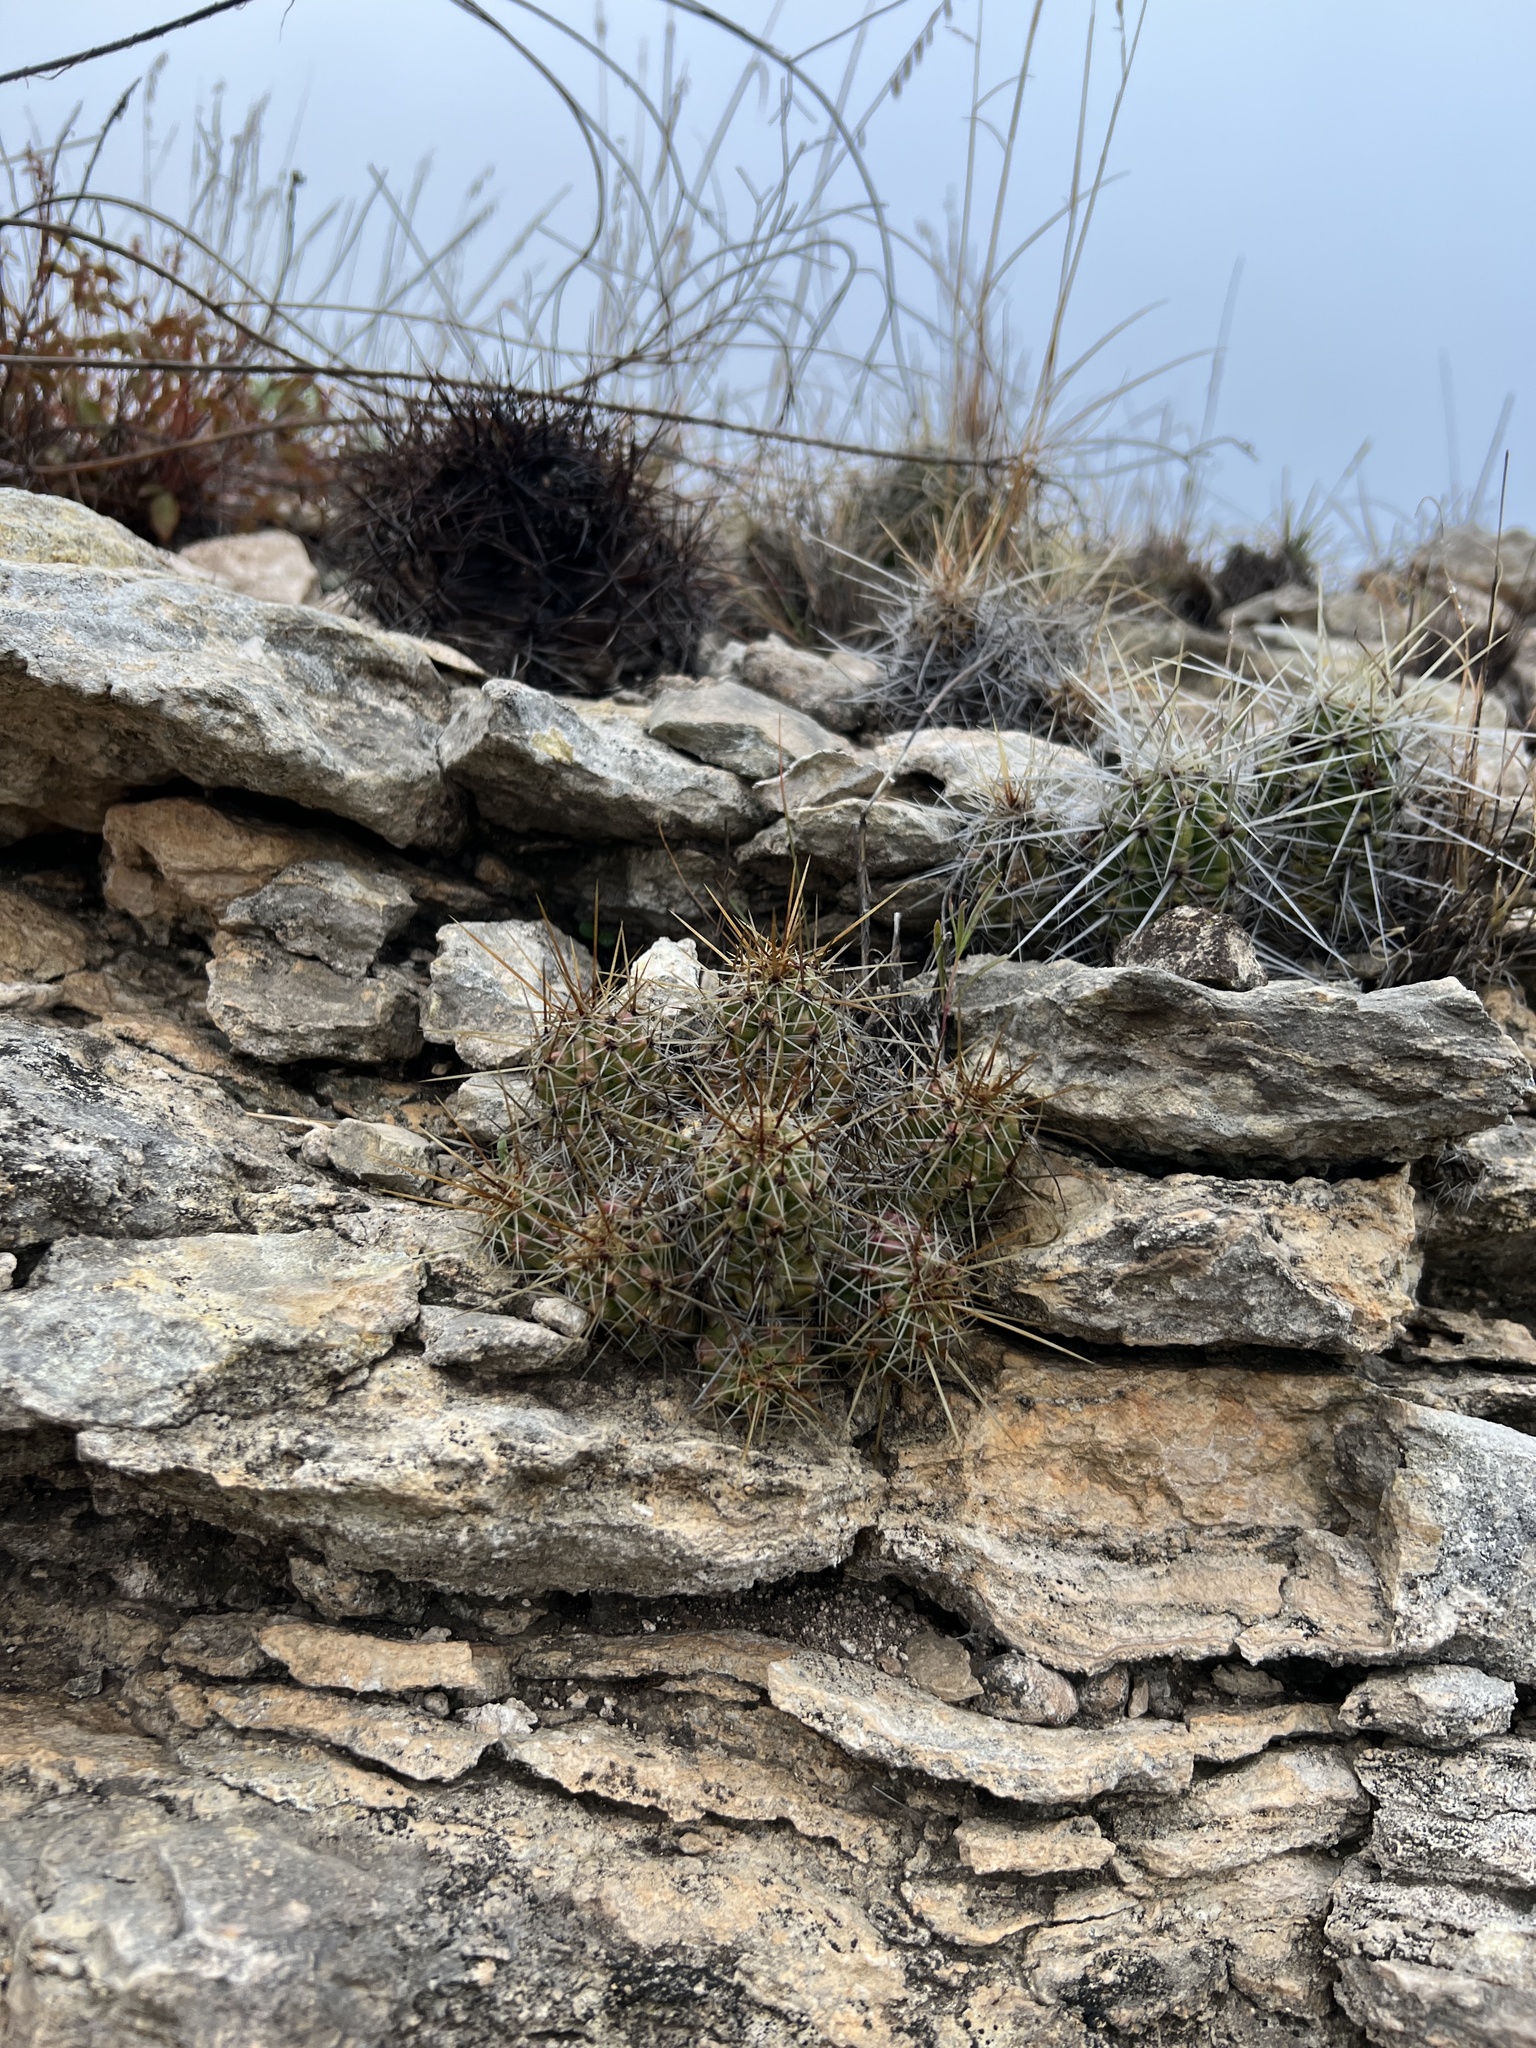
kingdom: Plantae
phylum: Tracheophyta
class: Magnoliopsida
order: Caryophyllales
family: Cactaceae
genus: Echinocereus
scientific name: Echinocereus enneacanthus
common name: Pitaya
